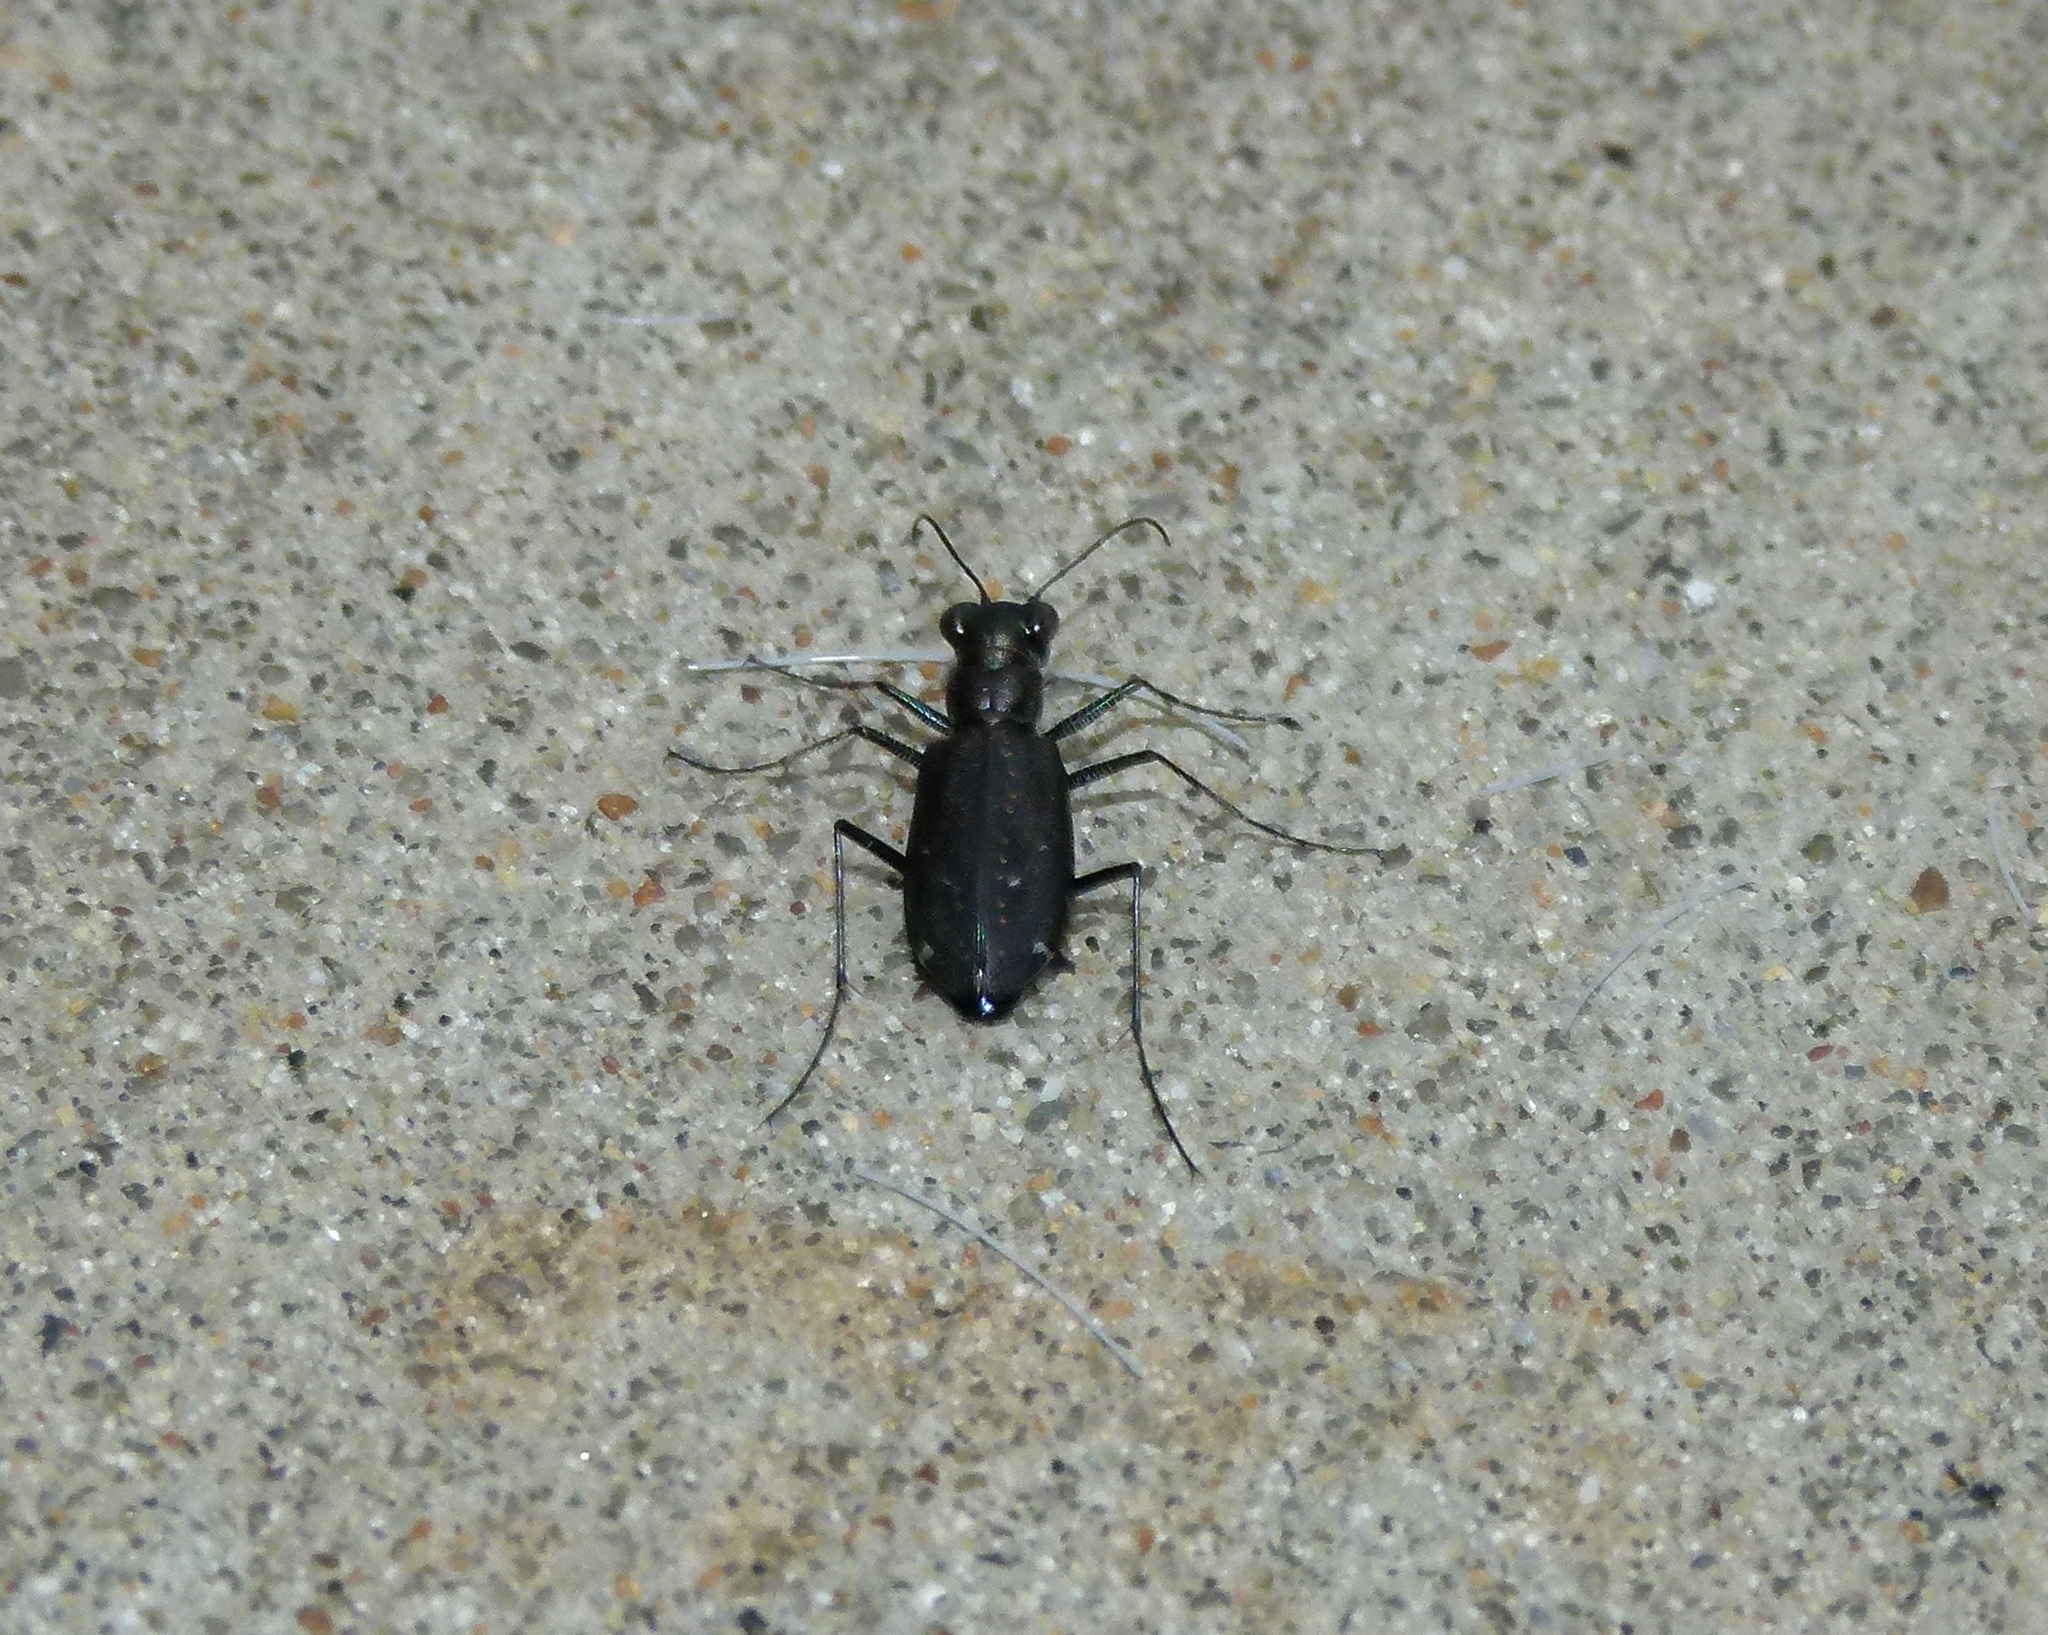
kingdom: Animalia
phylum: Arthropoda
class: Insecta
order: Coleoptera
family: Carabidae
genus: Cicindela
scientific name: Cicindela punctulata
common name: Punctured tiger beetle
